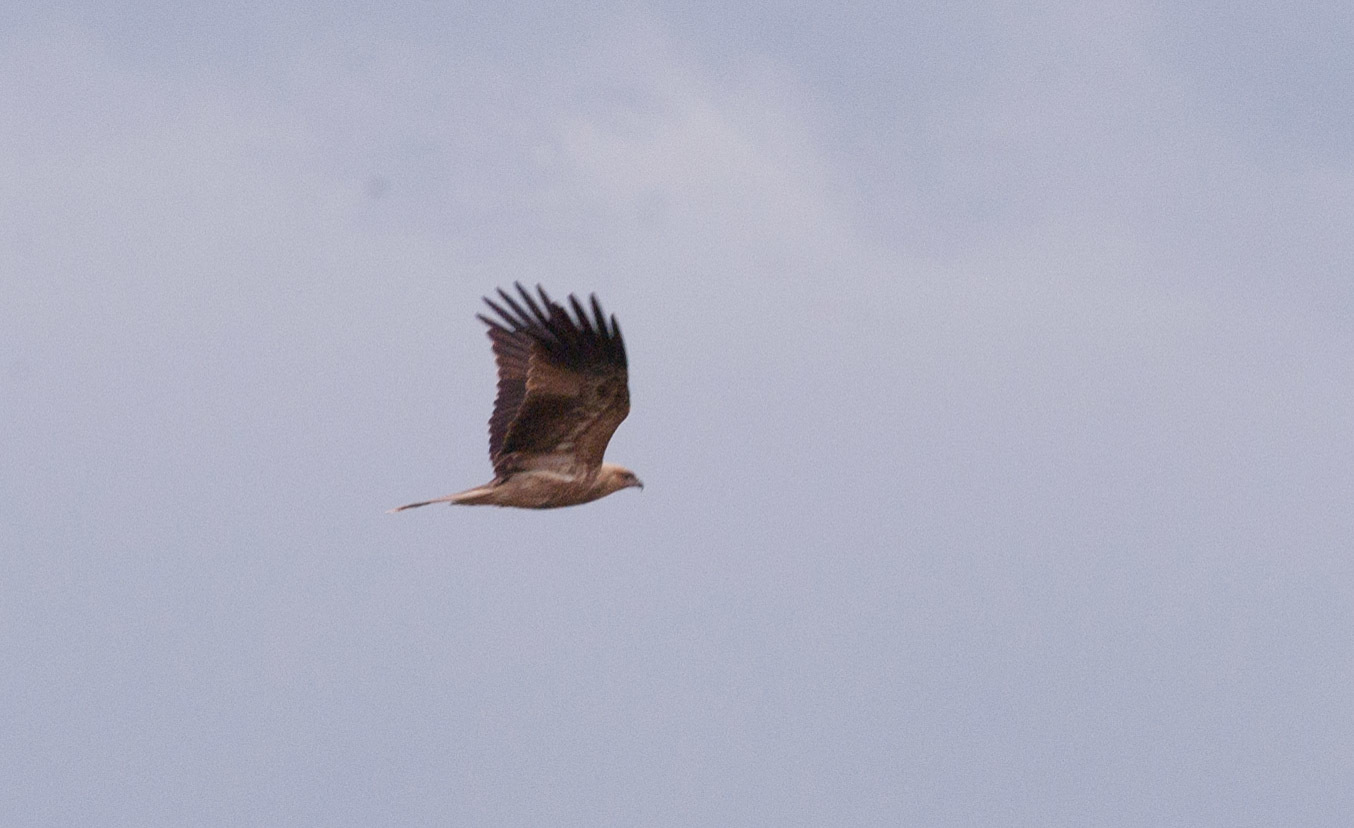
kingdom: Animalia
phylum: Chordata
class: Aves
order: Accipitriformes
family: Accipitridae
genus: Haliastur
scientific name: Haliastur sphenurus
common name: Whistling kite
